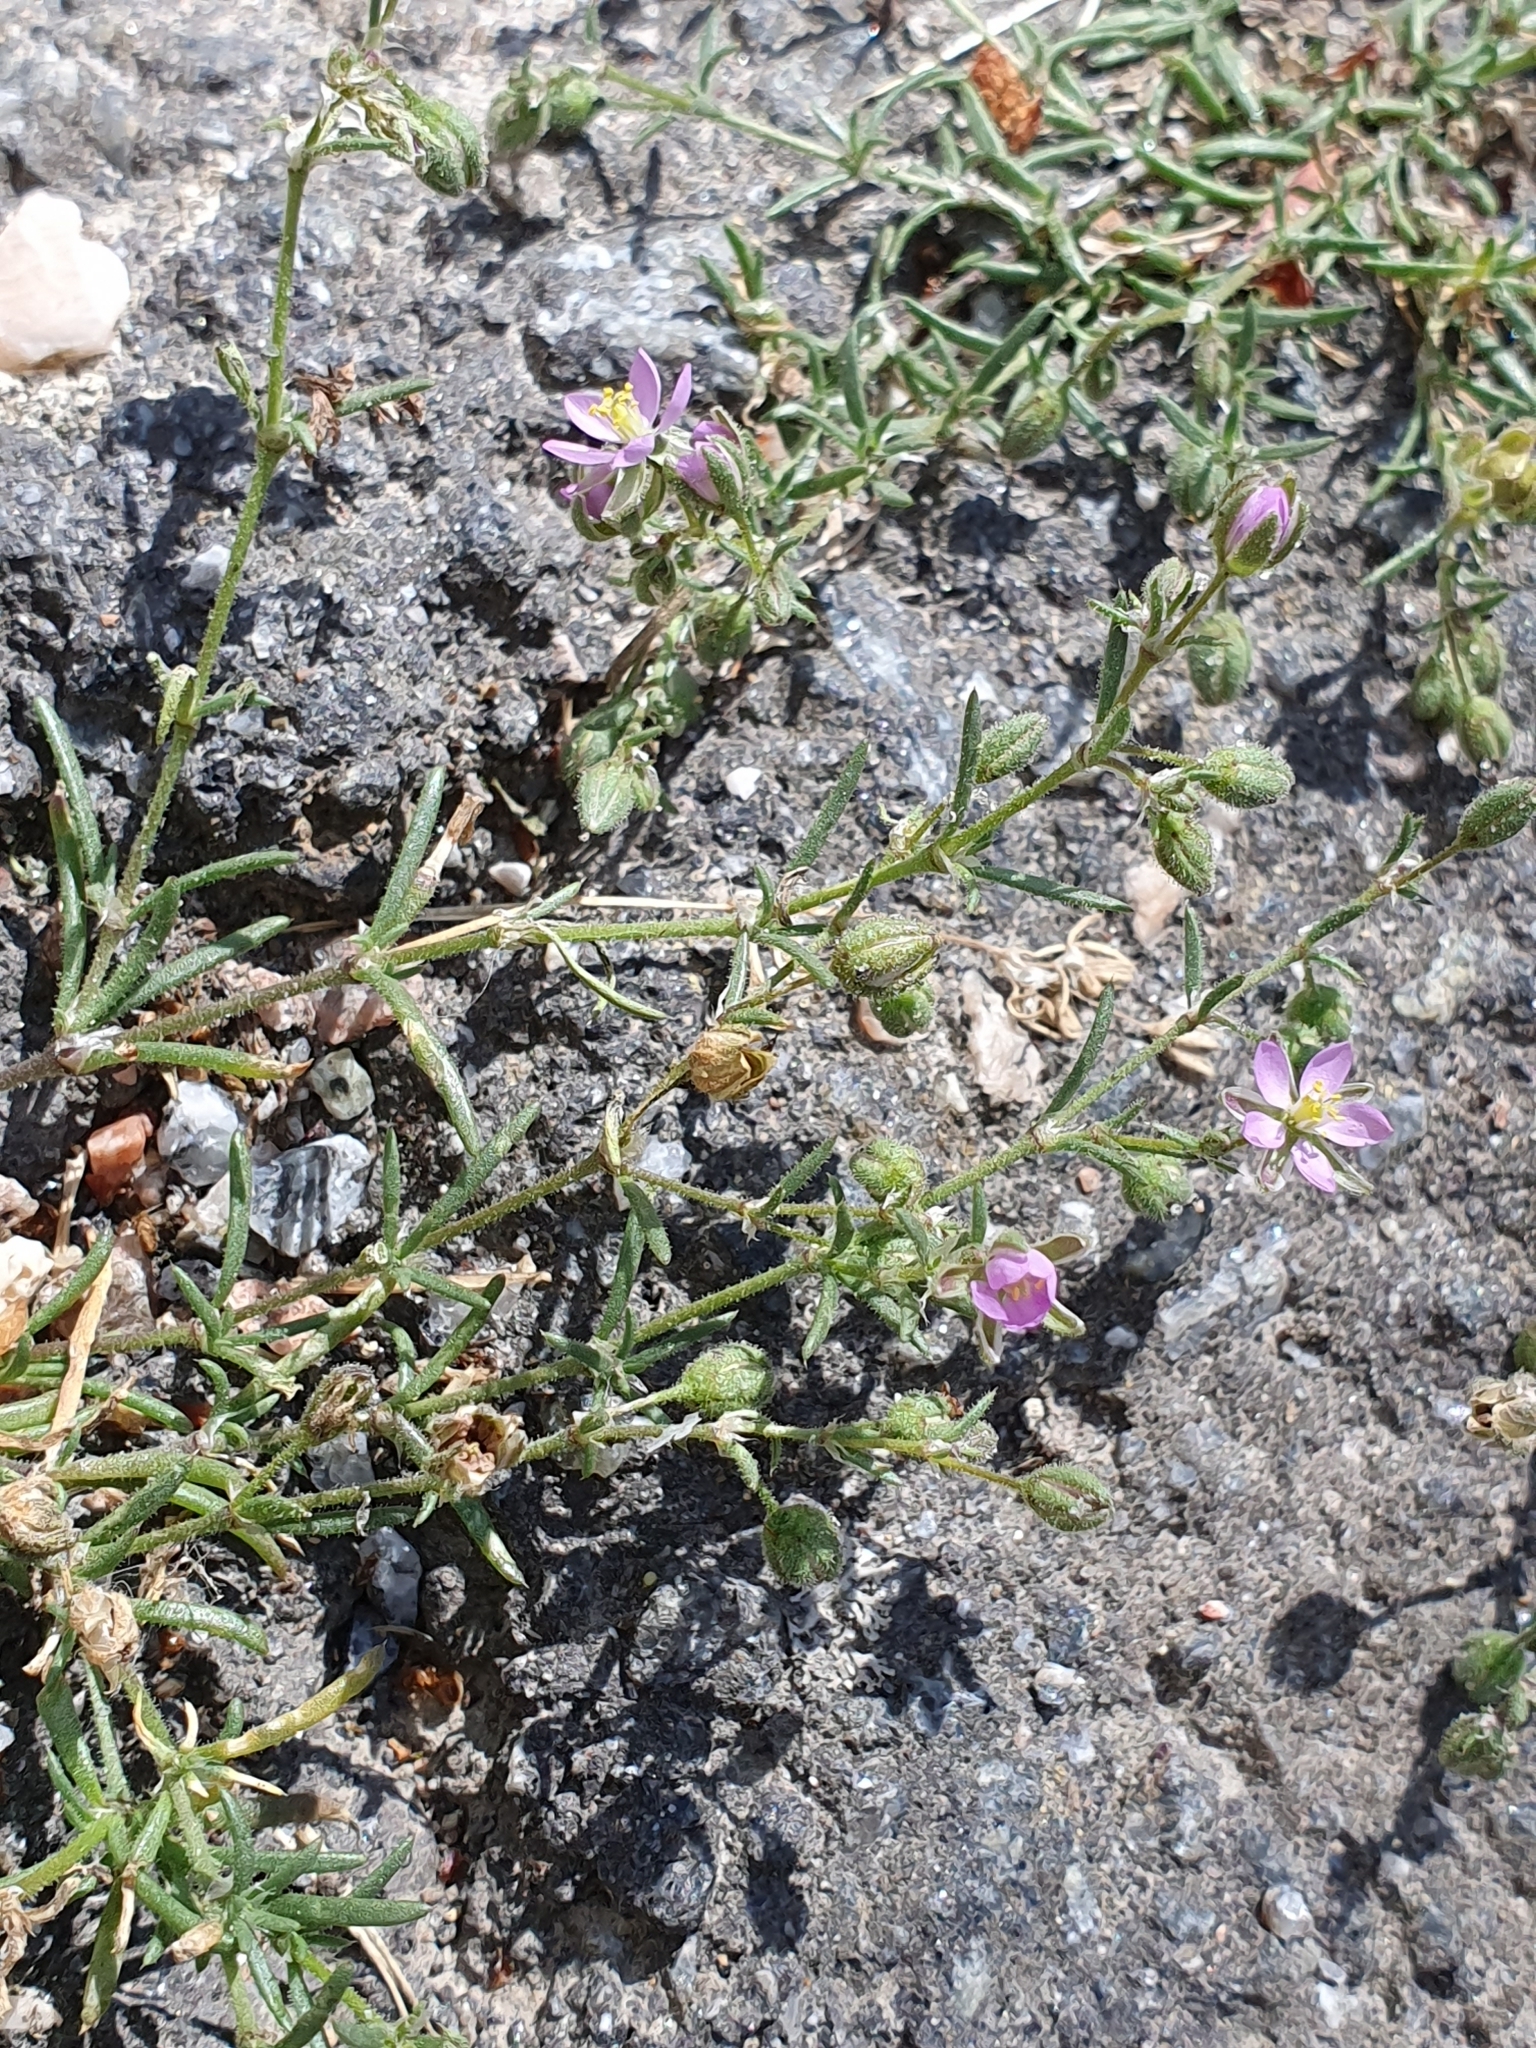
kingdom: Plantae
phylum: Tracheophyta
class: Magnoliopsida
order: Caryophyllales
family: Caryophyllaceae
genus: Spergularia
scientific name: Spergularia rubra
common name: Red sand-spurrey
